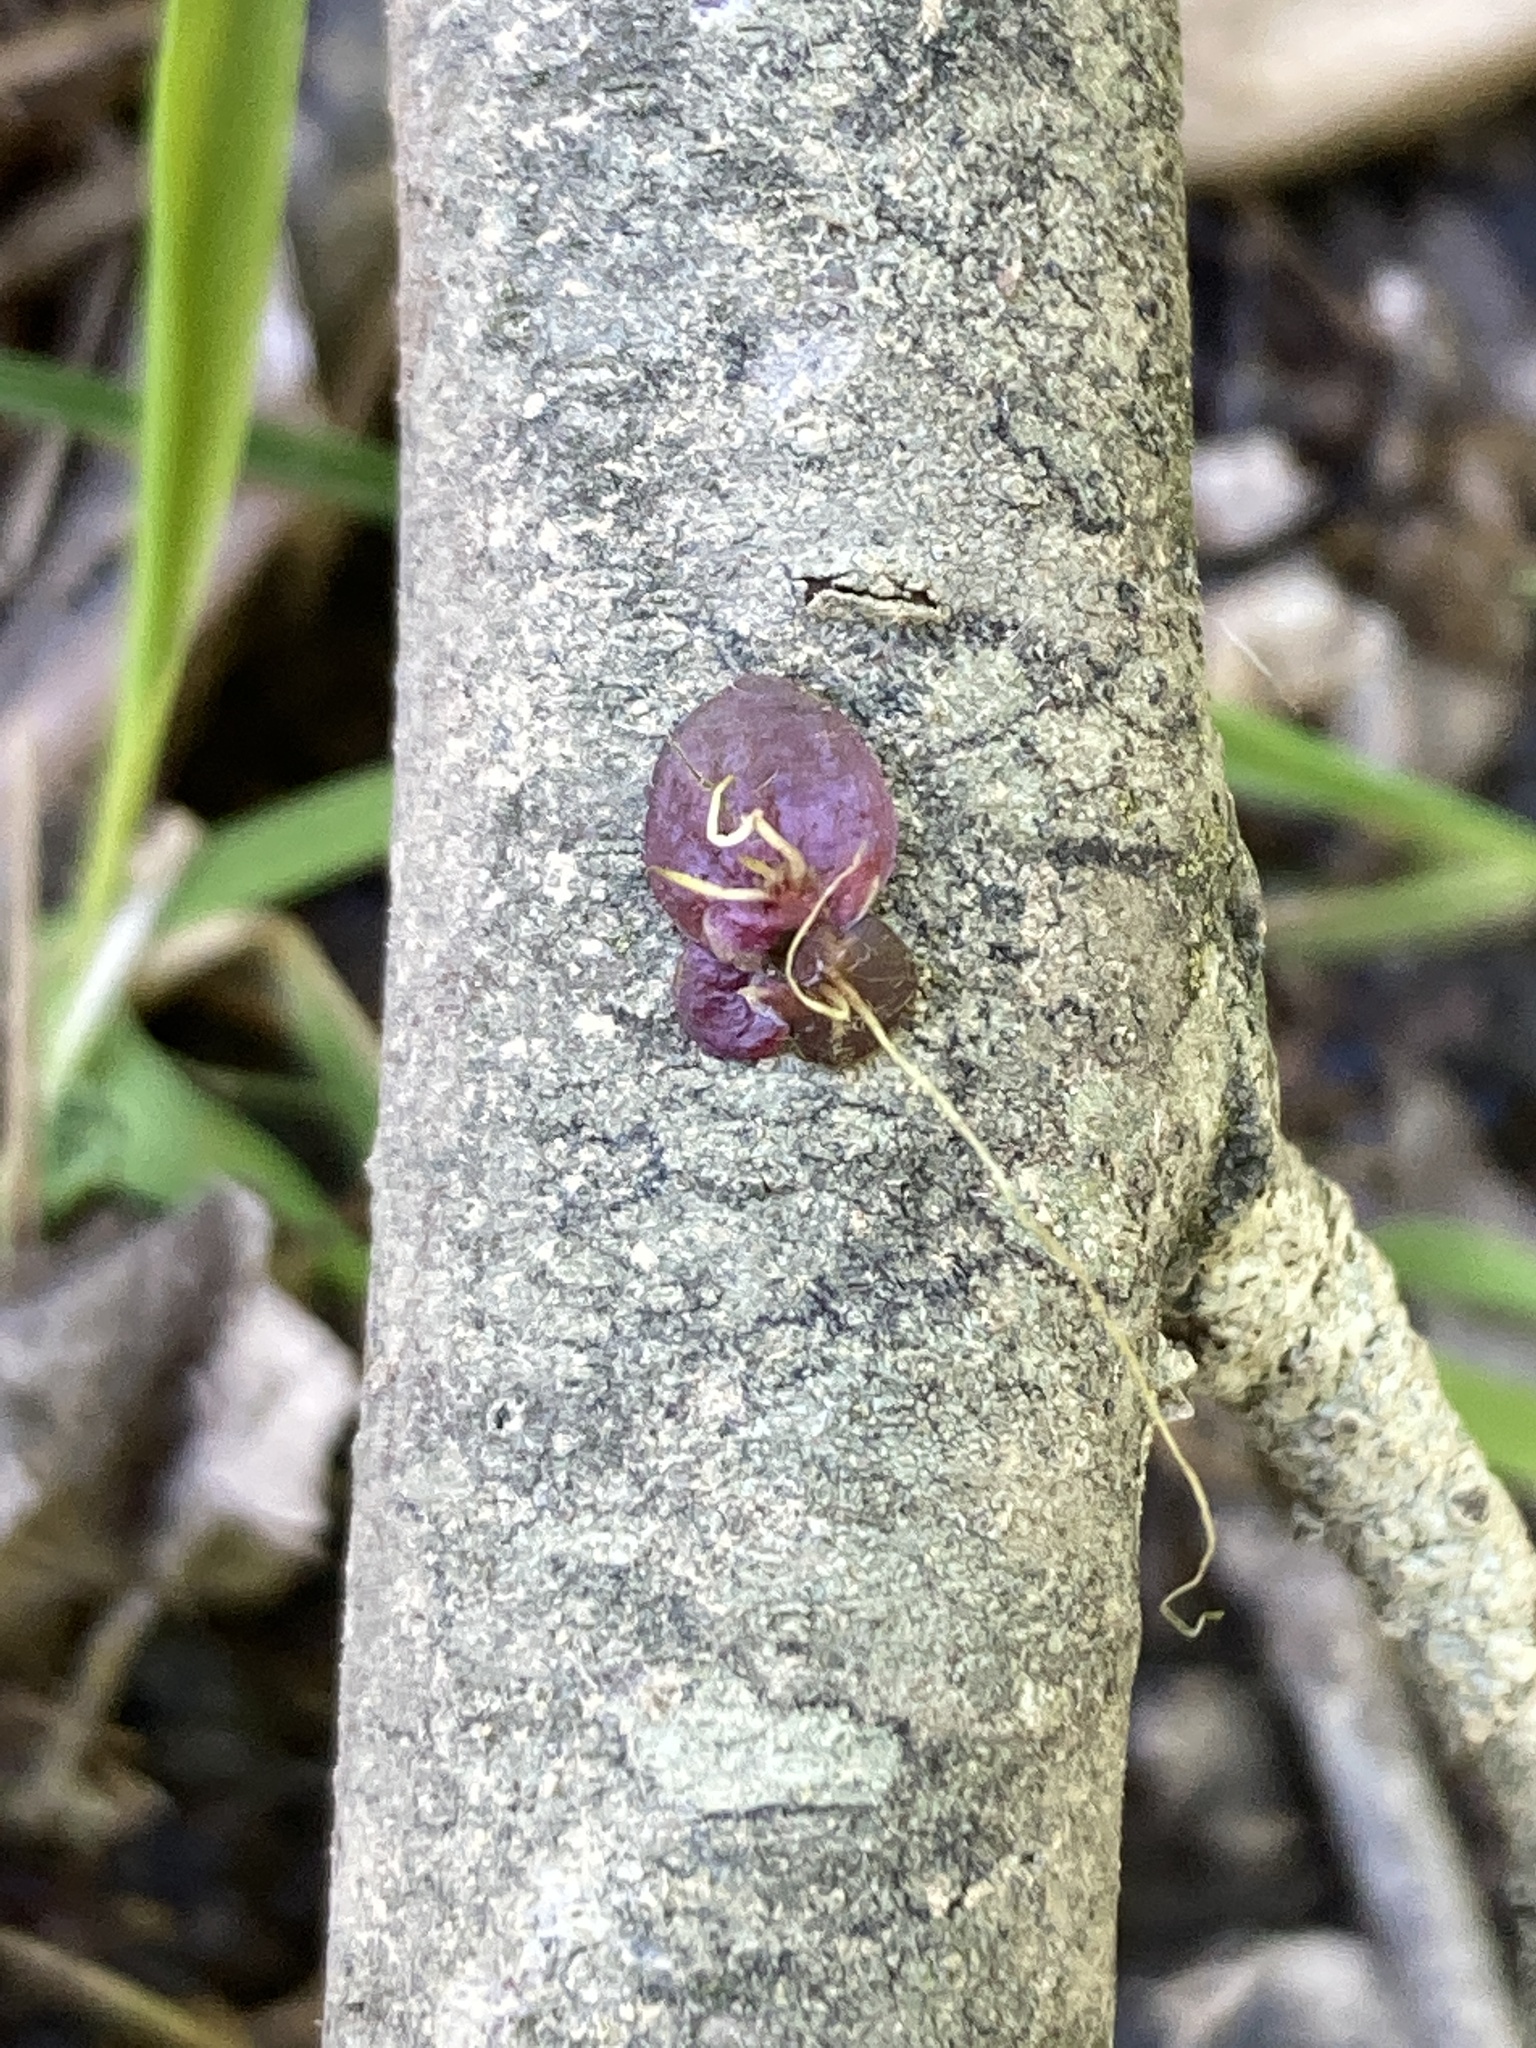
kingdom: Plantae
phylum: Tracheophyta
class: Liliopsida
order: Alismatales
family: Araceae
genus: Spirodela
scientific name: Spirodela polyrhiza
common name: Great duckweed
